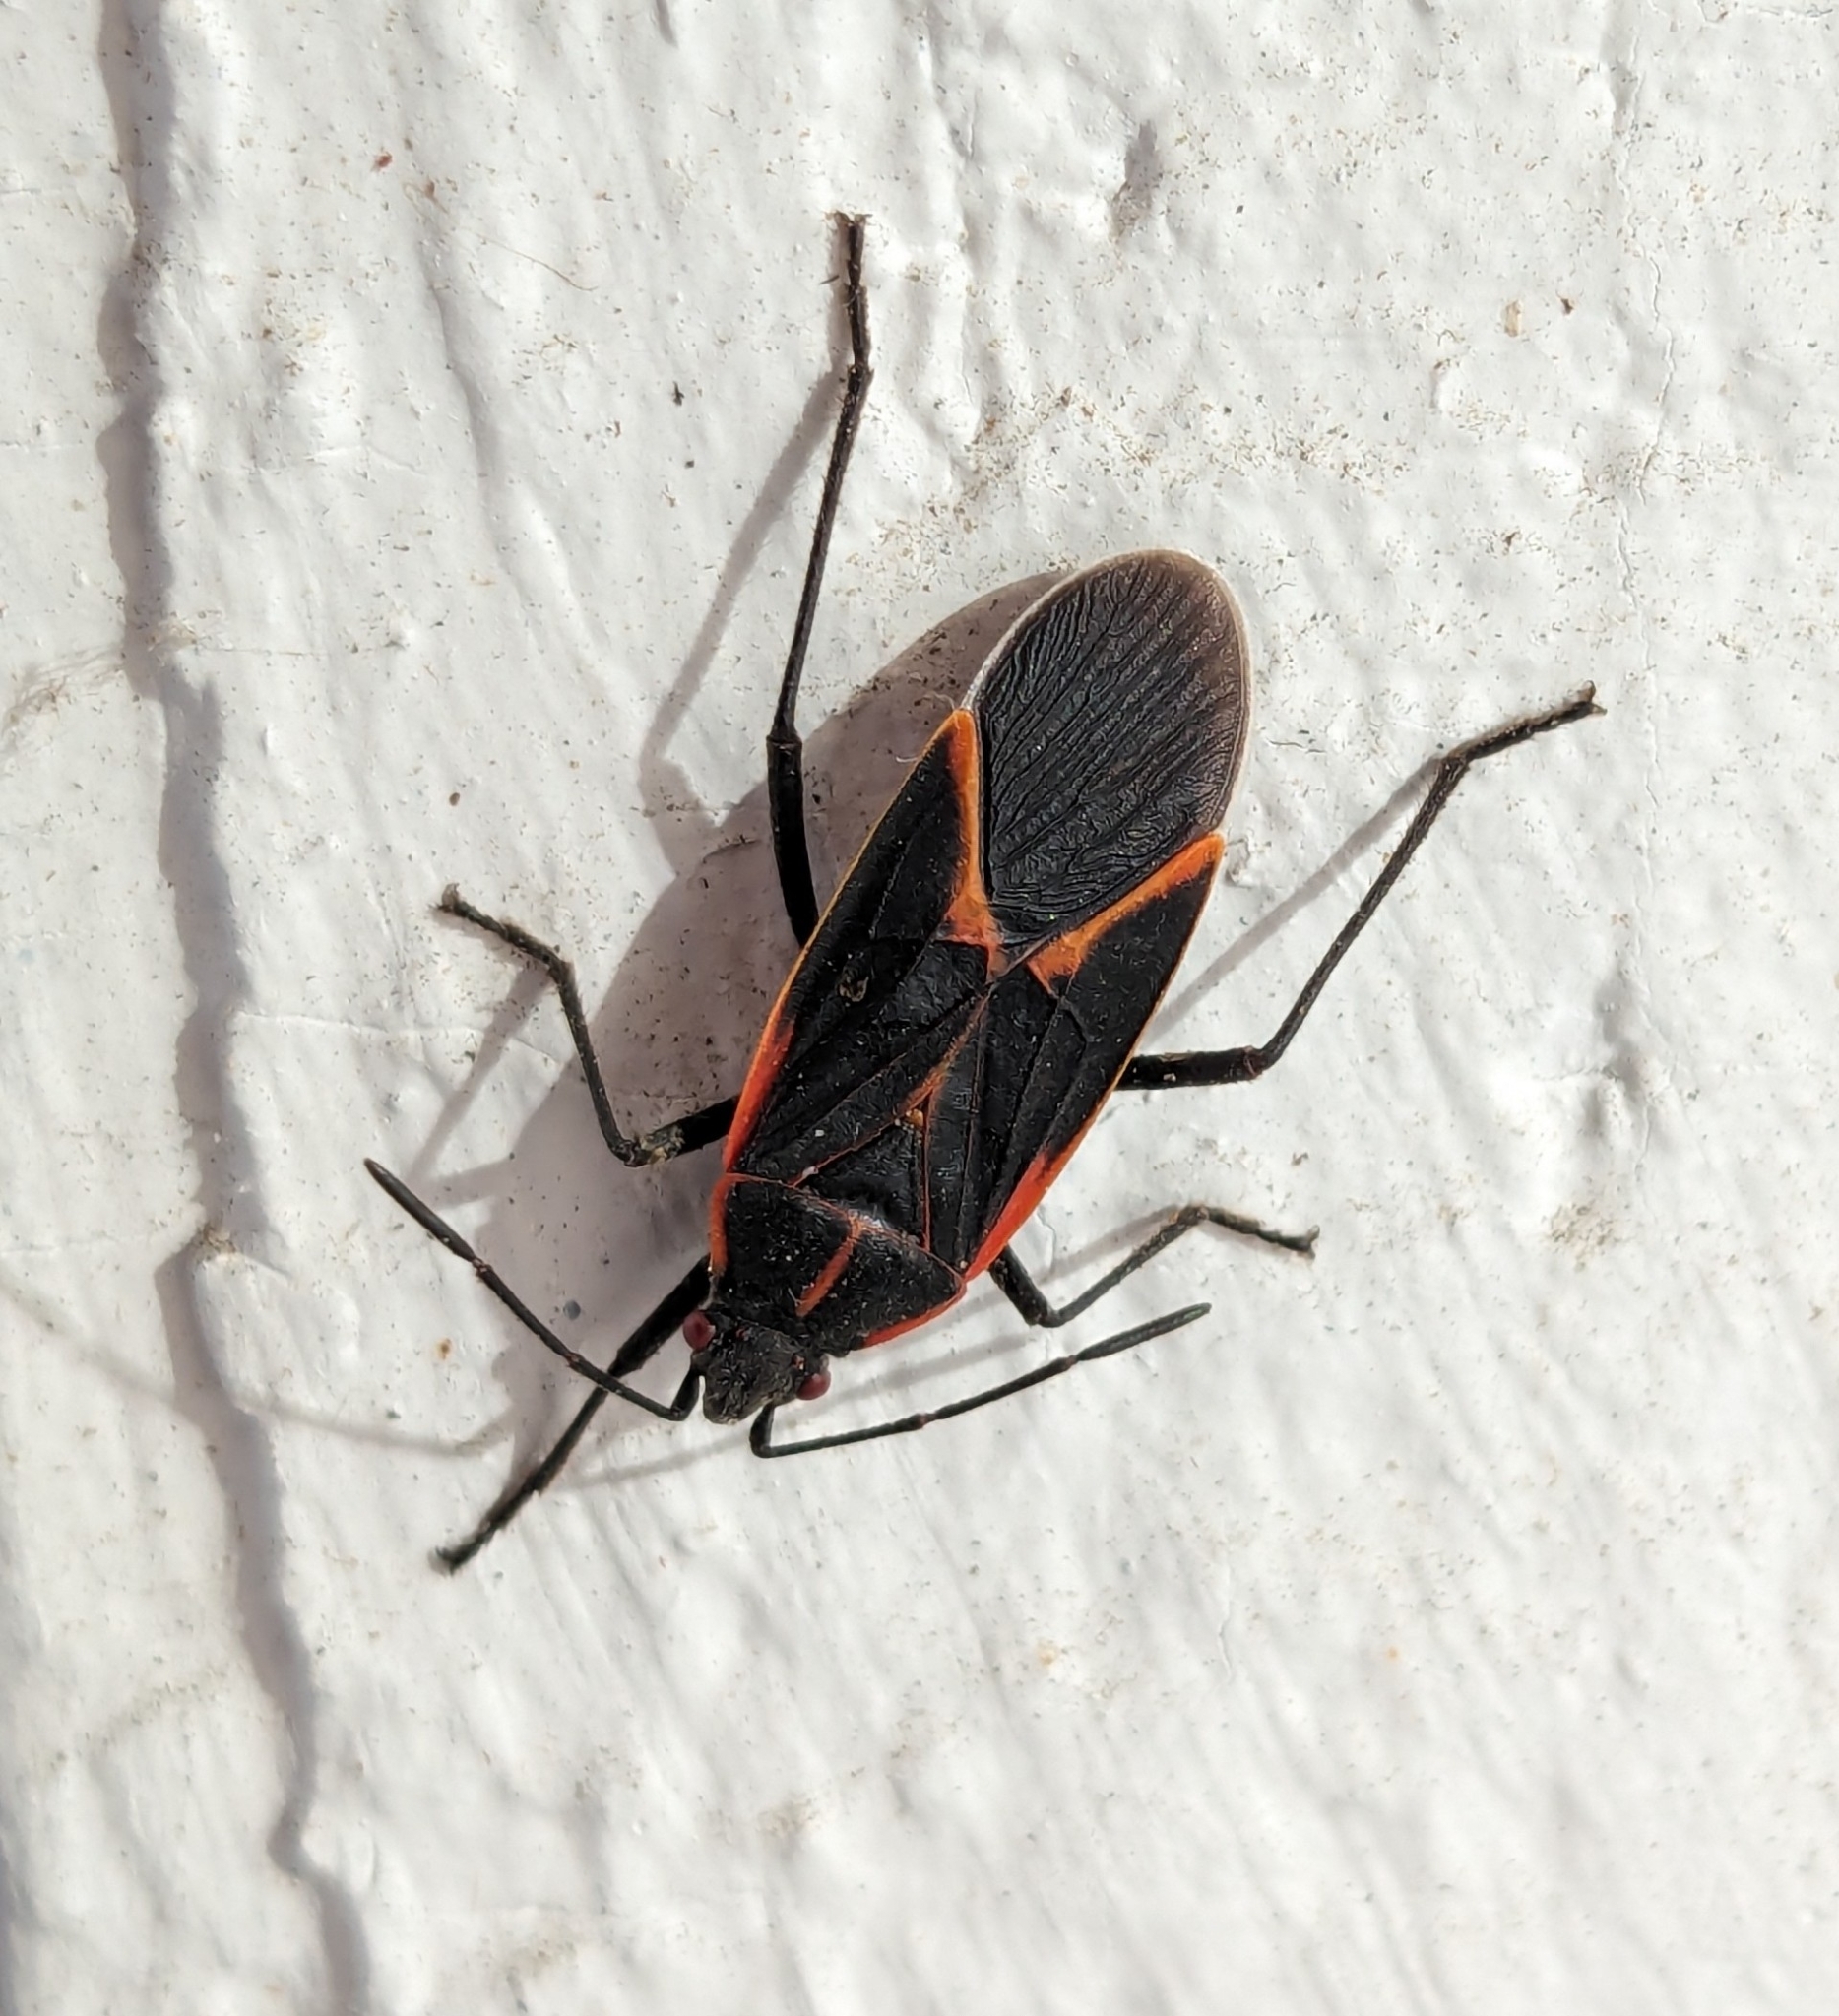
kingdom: Animalia
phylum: Arthropoda
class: Insecta
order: Hemiptera
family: Rhopalidae
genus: Boisea
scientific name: Boisea trivittata
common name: Boxelder bug
